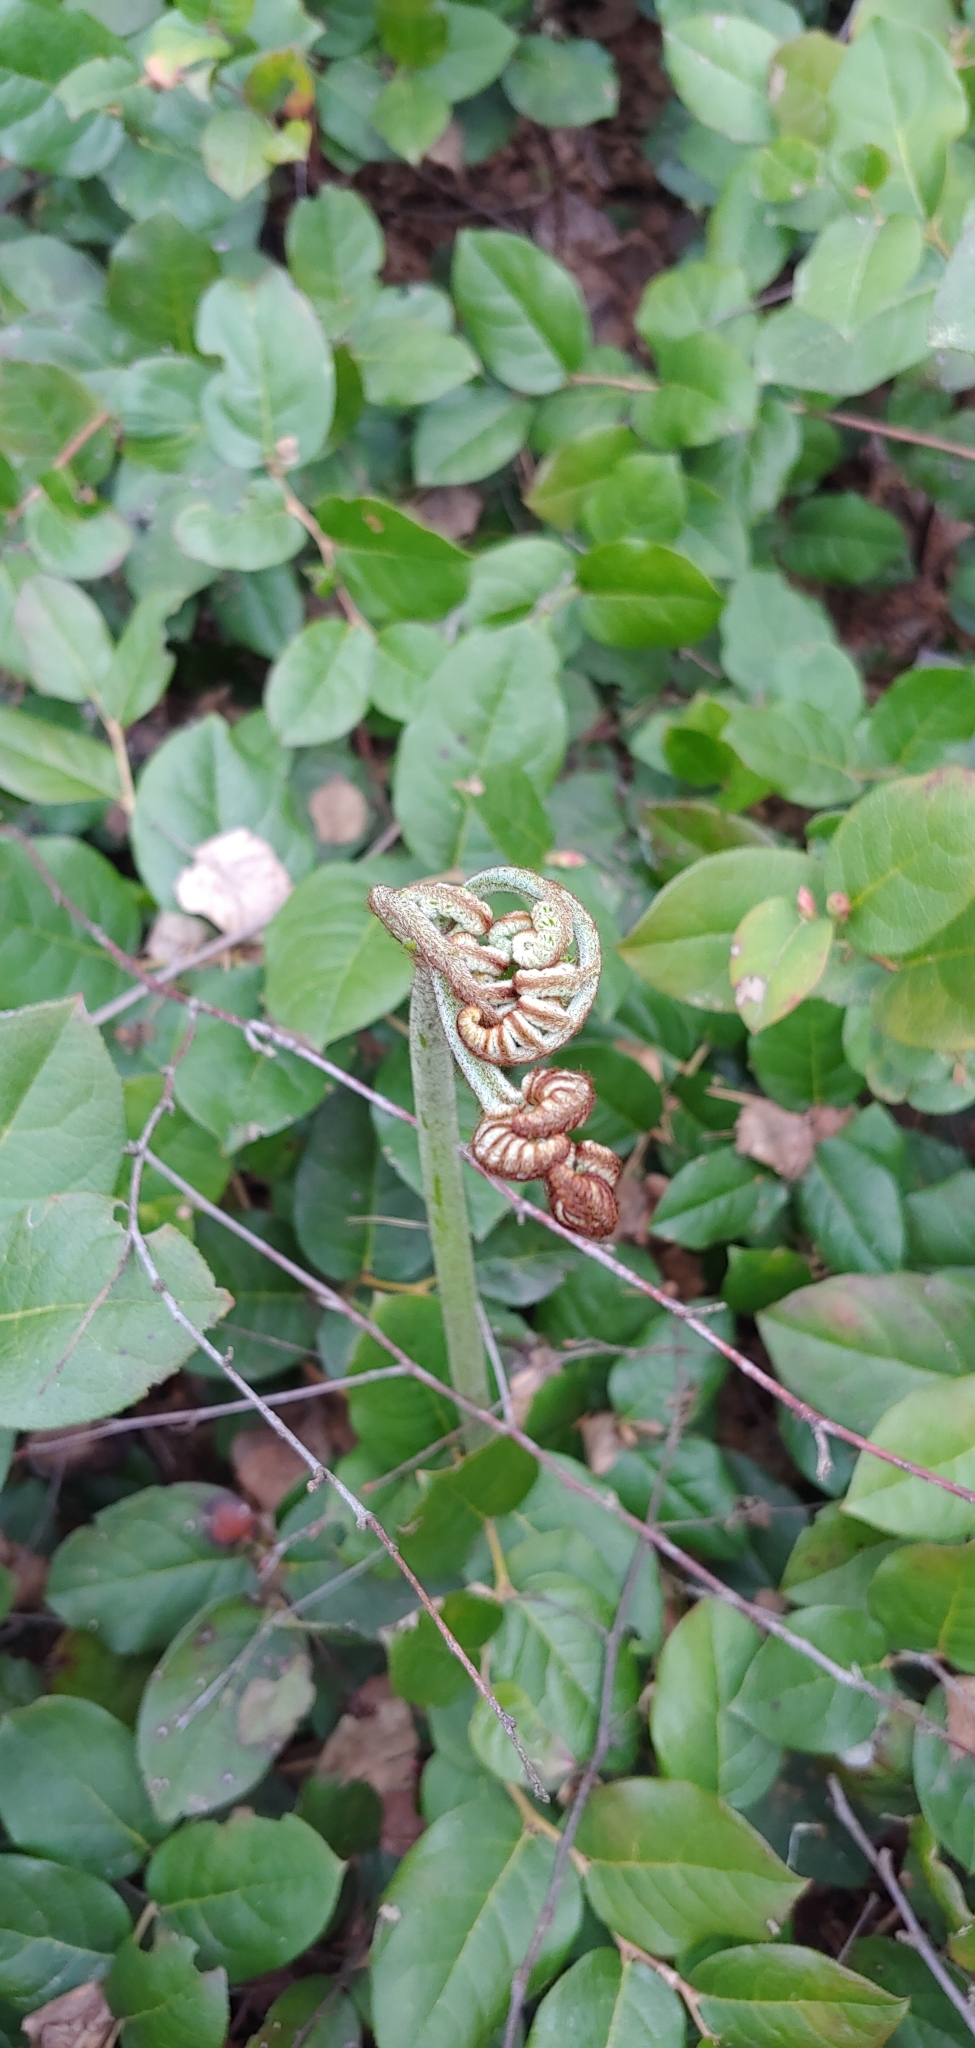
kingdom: Plantae
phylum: Tracheophyta
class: Polypodiopsida
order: Polypodiales
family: Dennstaedtiaceae
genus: Pteridium
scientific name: Pteridium aquilinum
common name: Bracken
